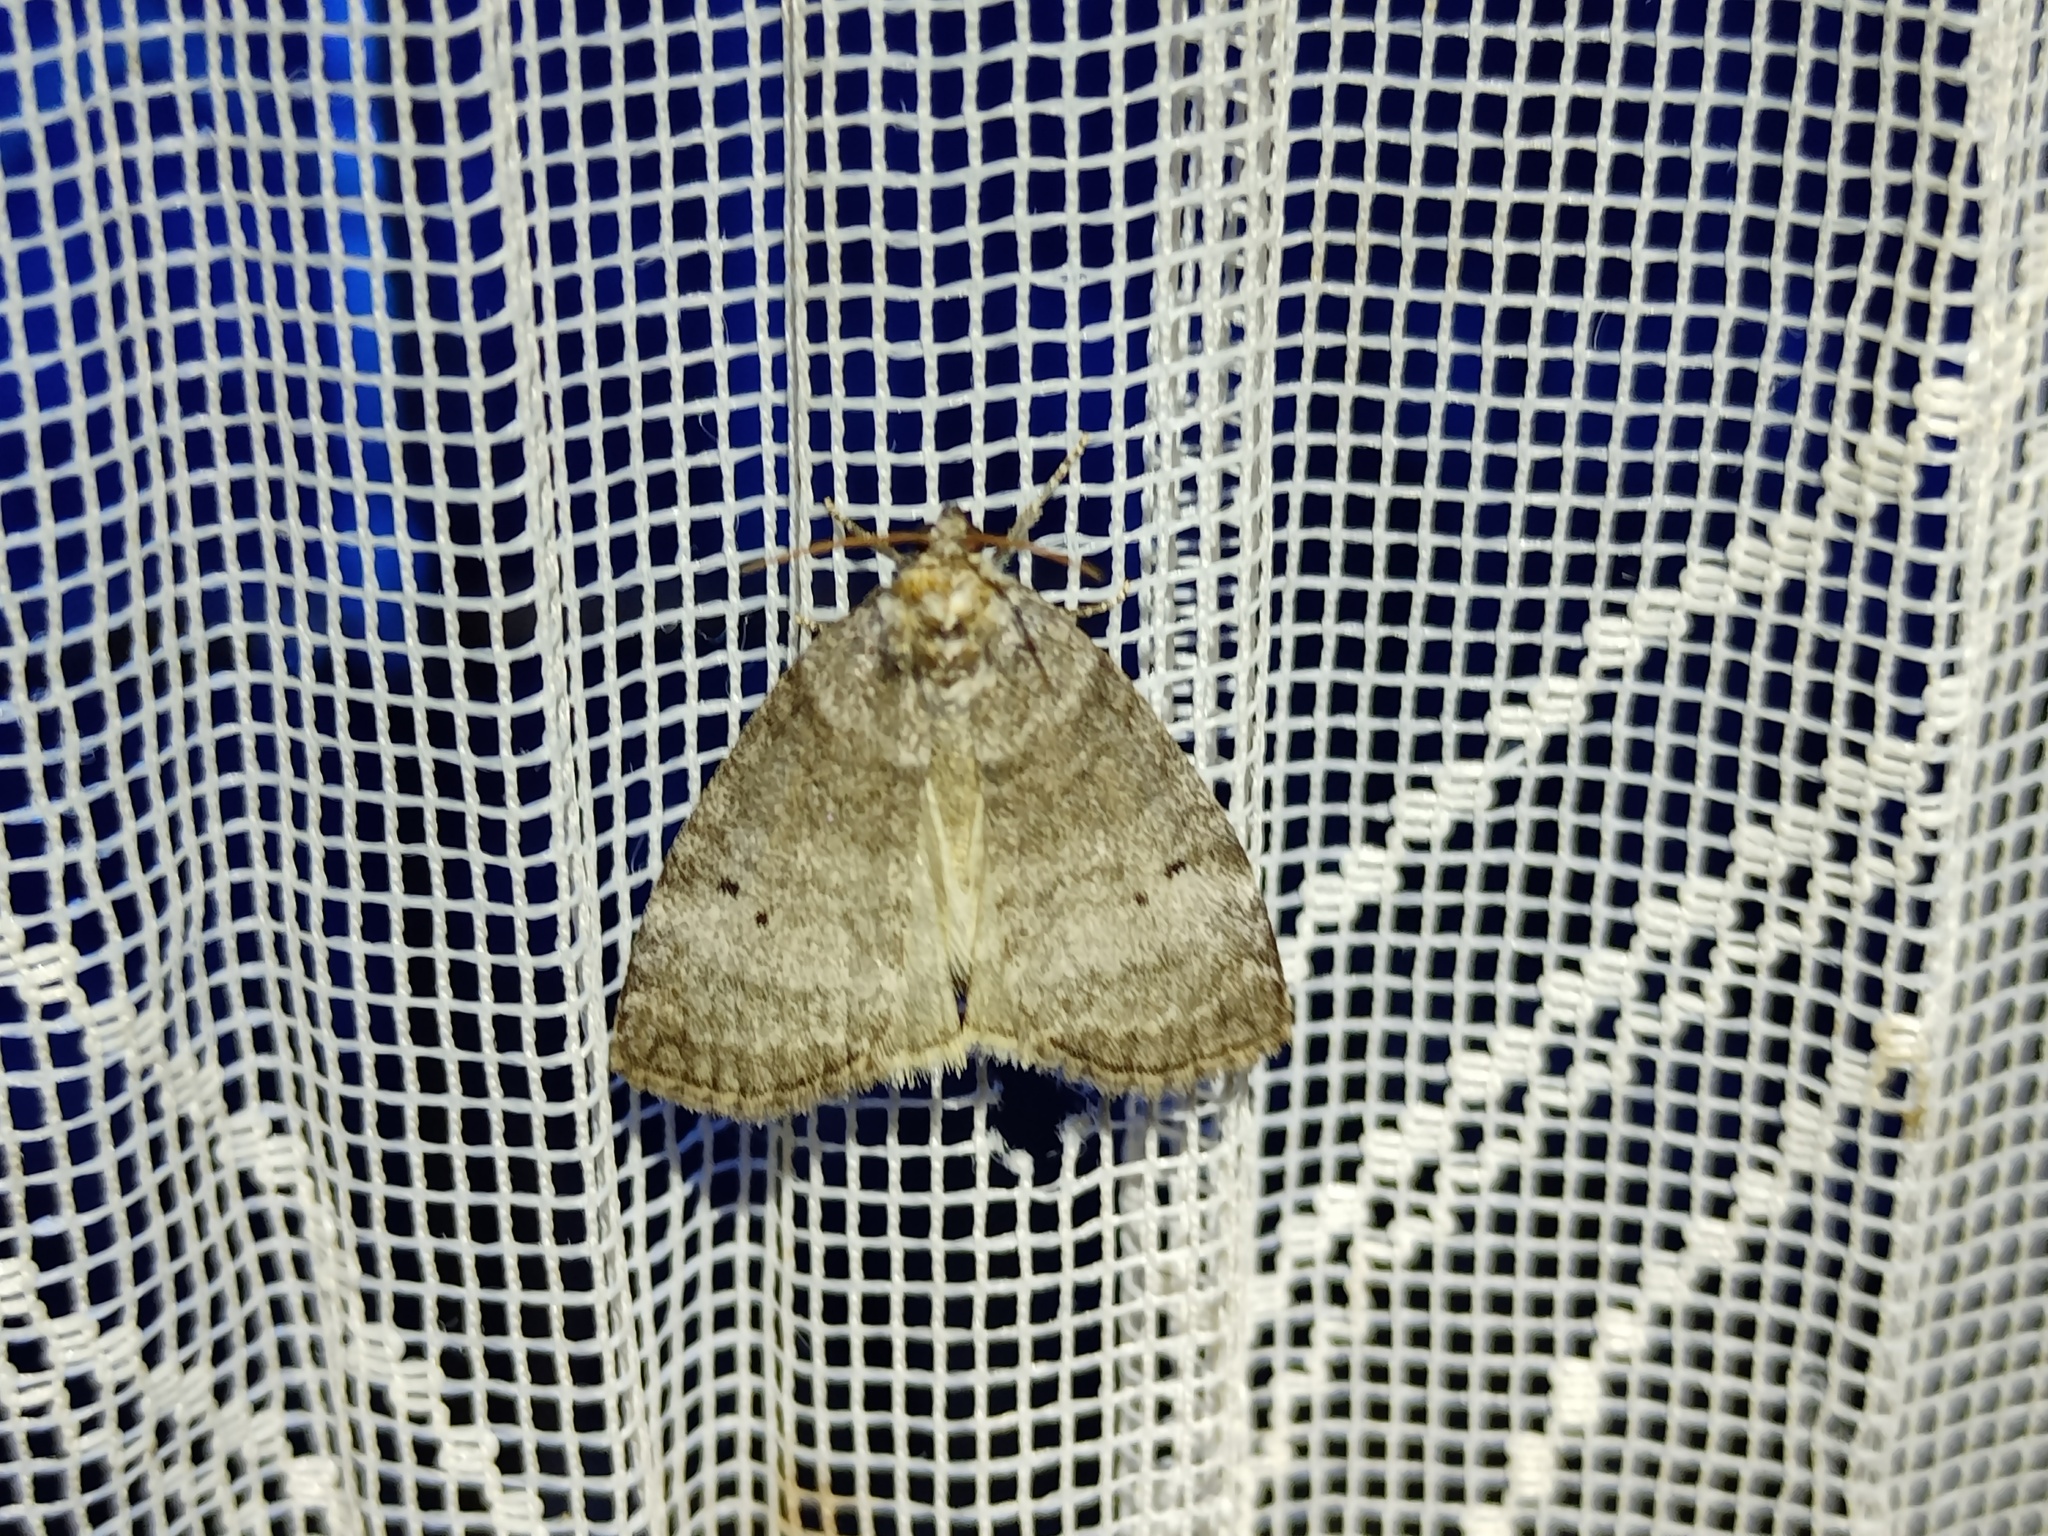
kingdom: Animalia
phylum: Arthropoda
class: Insecta
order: Lepidoptera
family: Drepanidae
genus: Ochropacha
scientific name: Ochropacha duplaris
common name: Common lutestring
